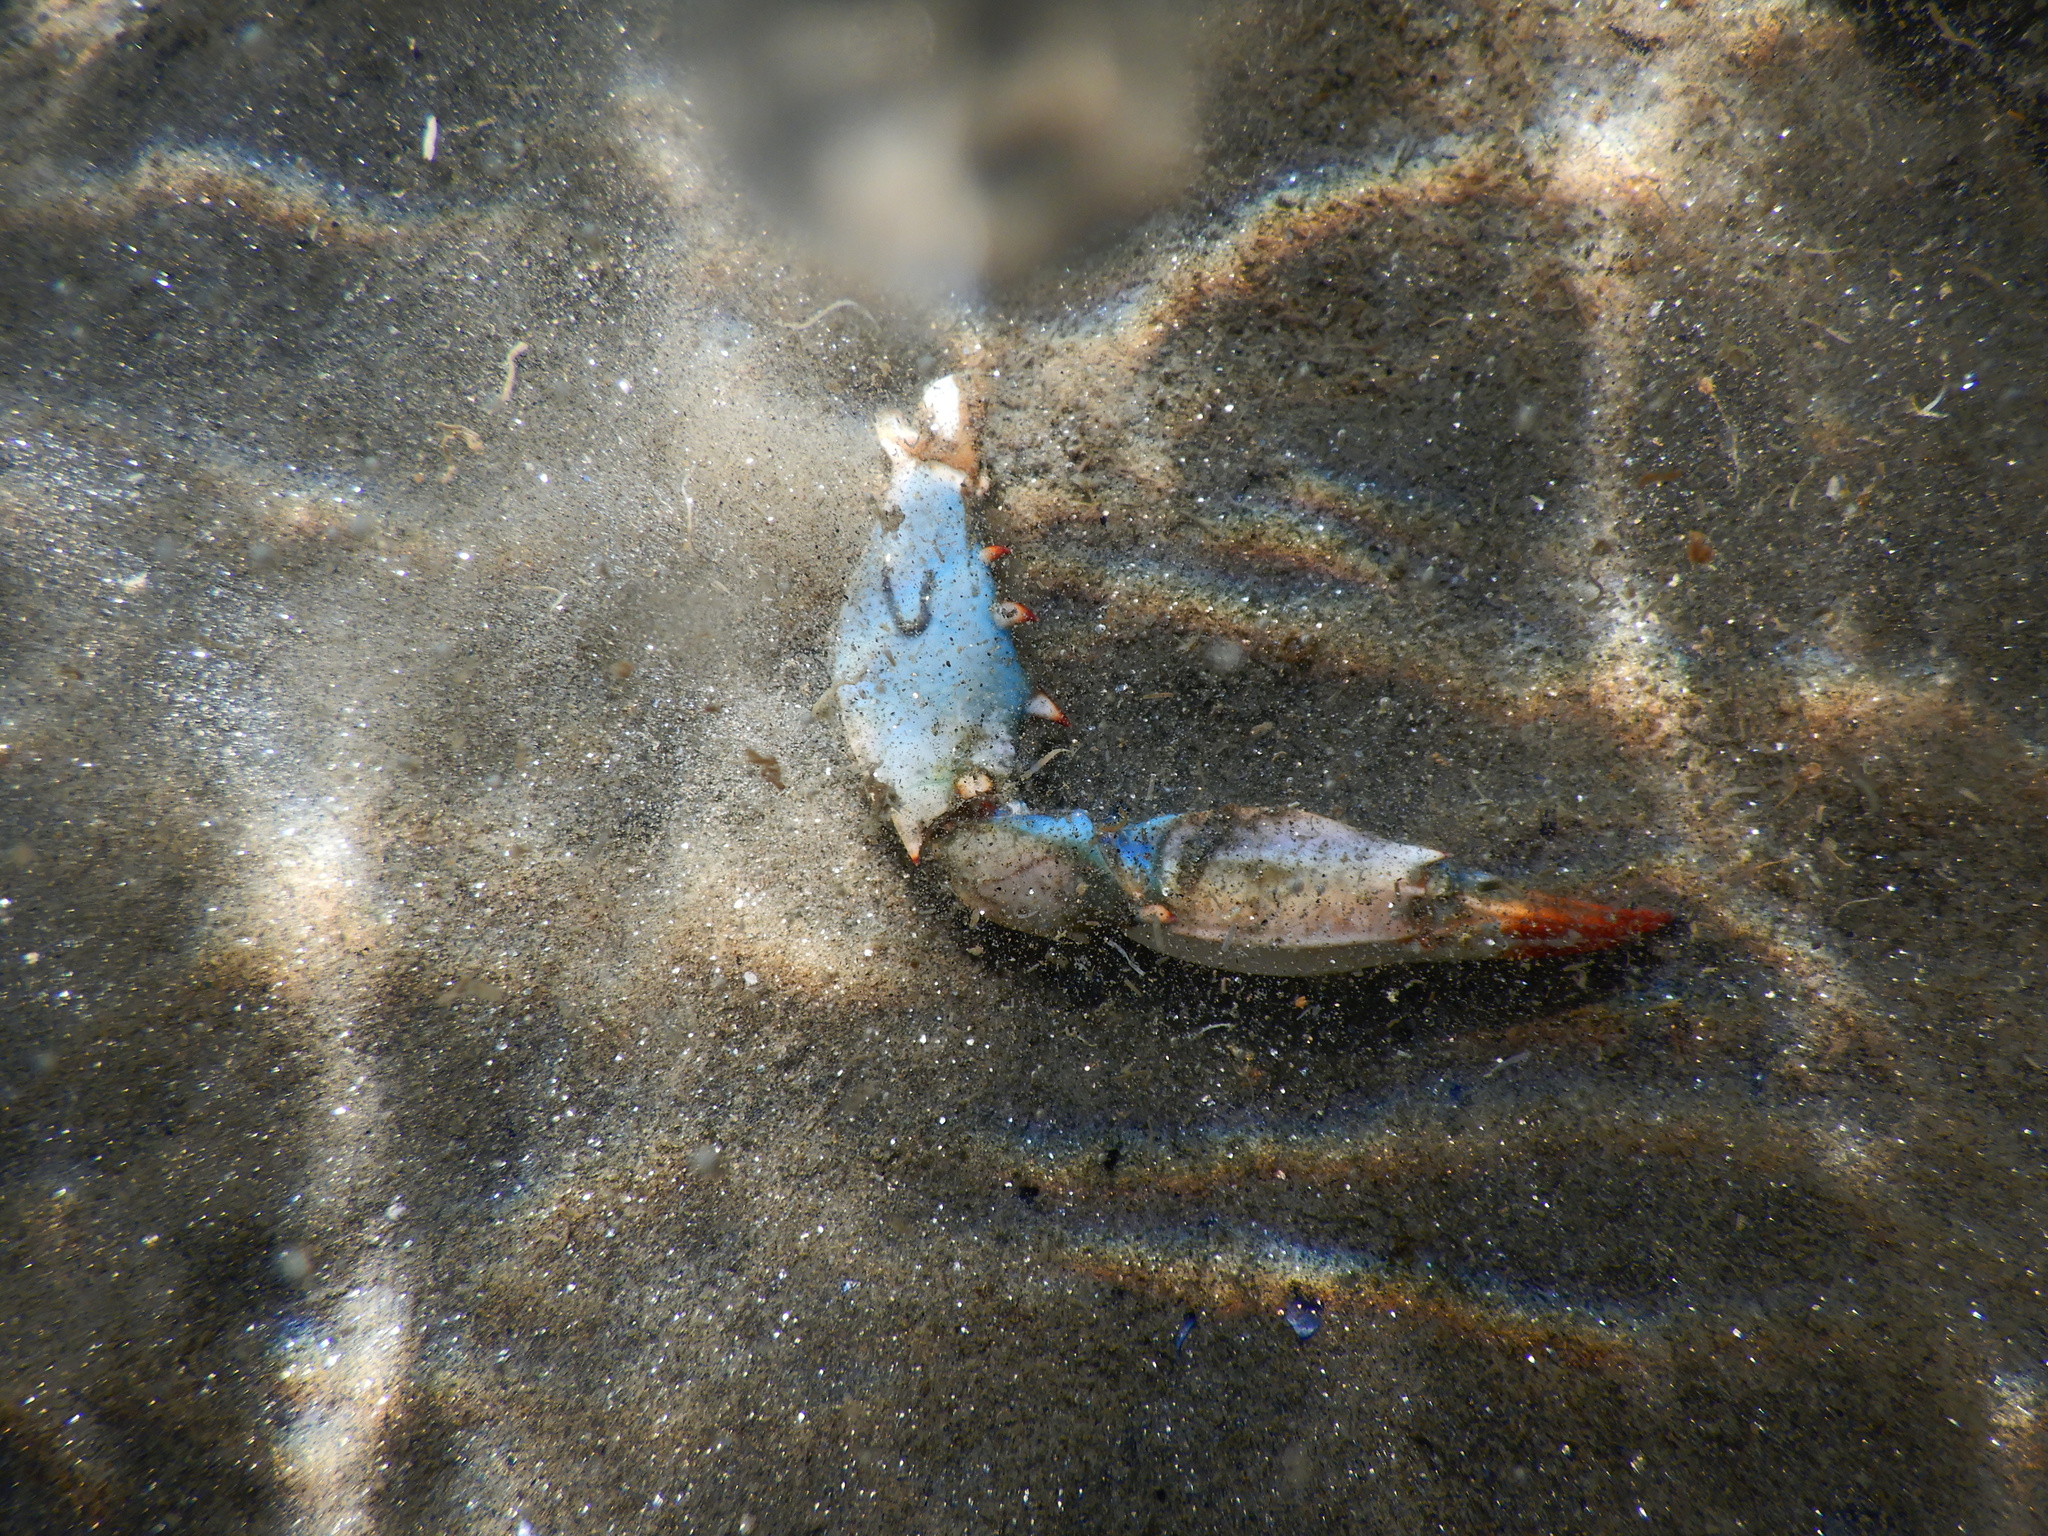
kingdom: Animalia
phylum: Arthropoda
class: Malacostraca
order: Decapoda
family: Portunidae
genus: Callinectes
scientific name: Callinectes sapidus
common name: Blue crab
